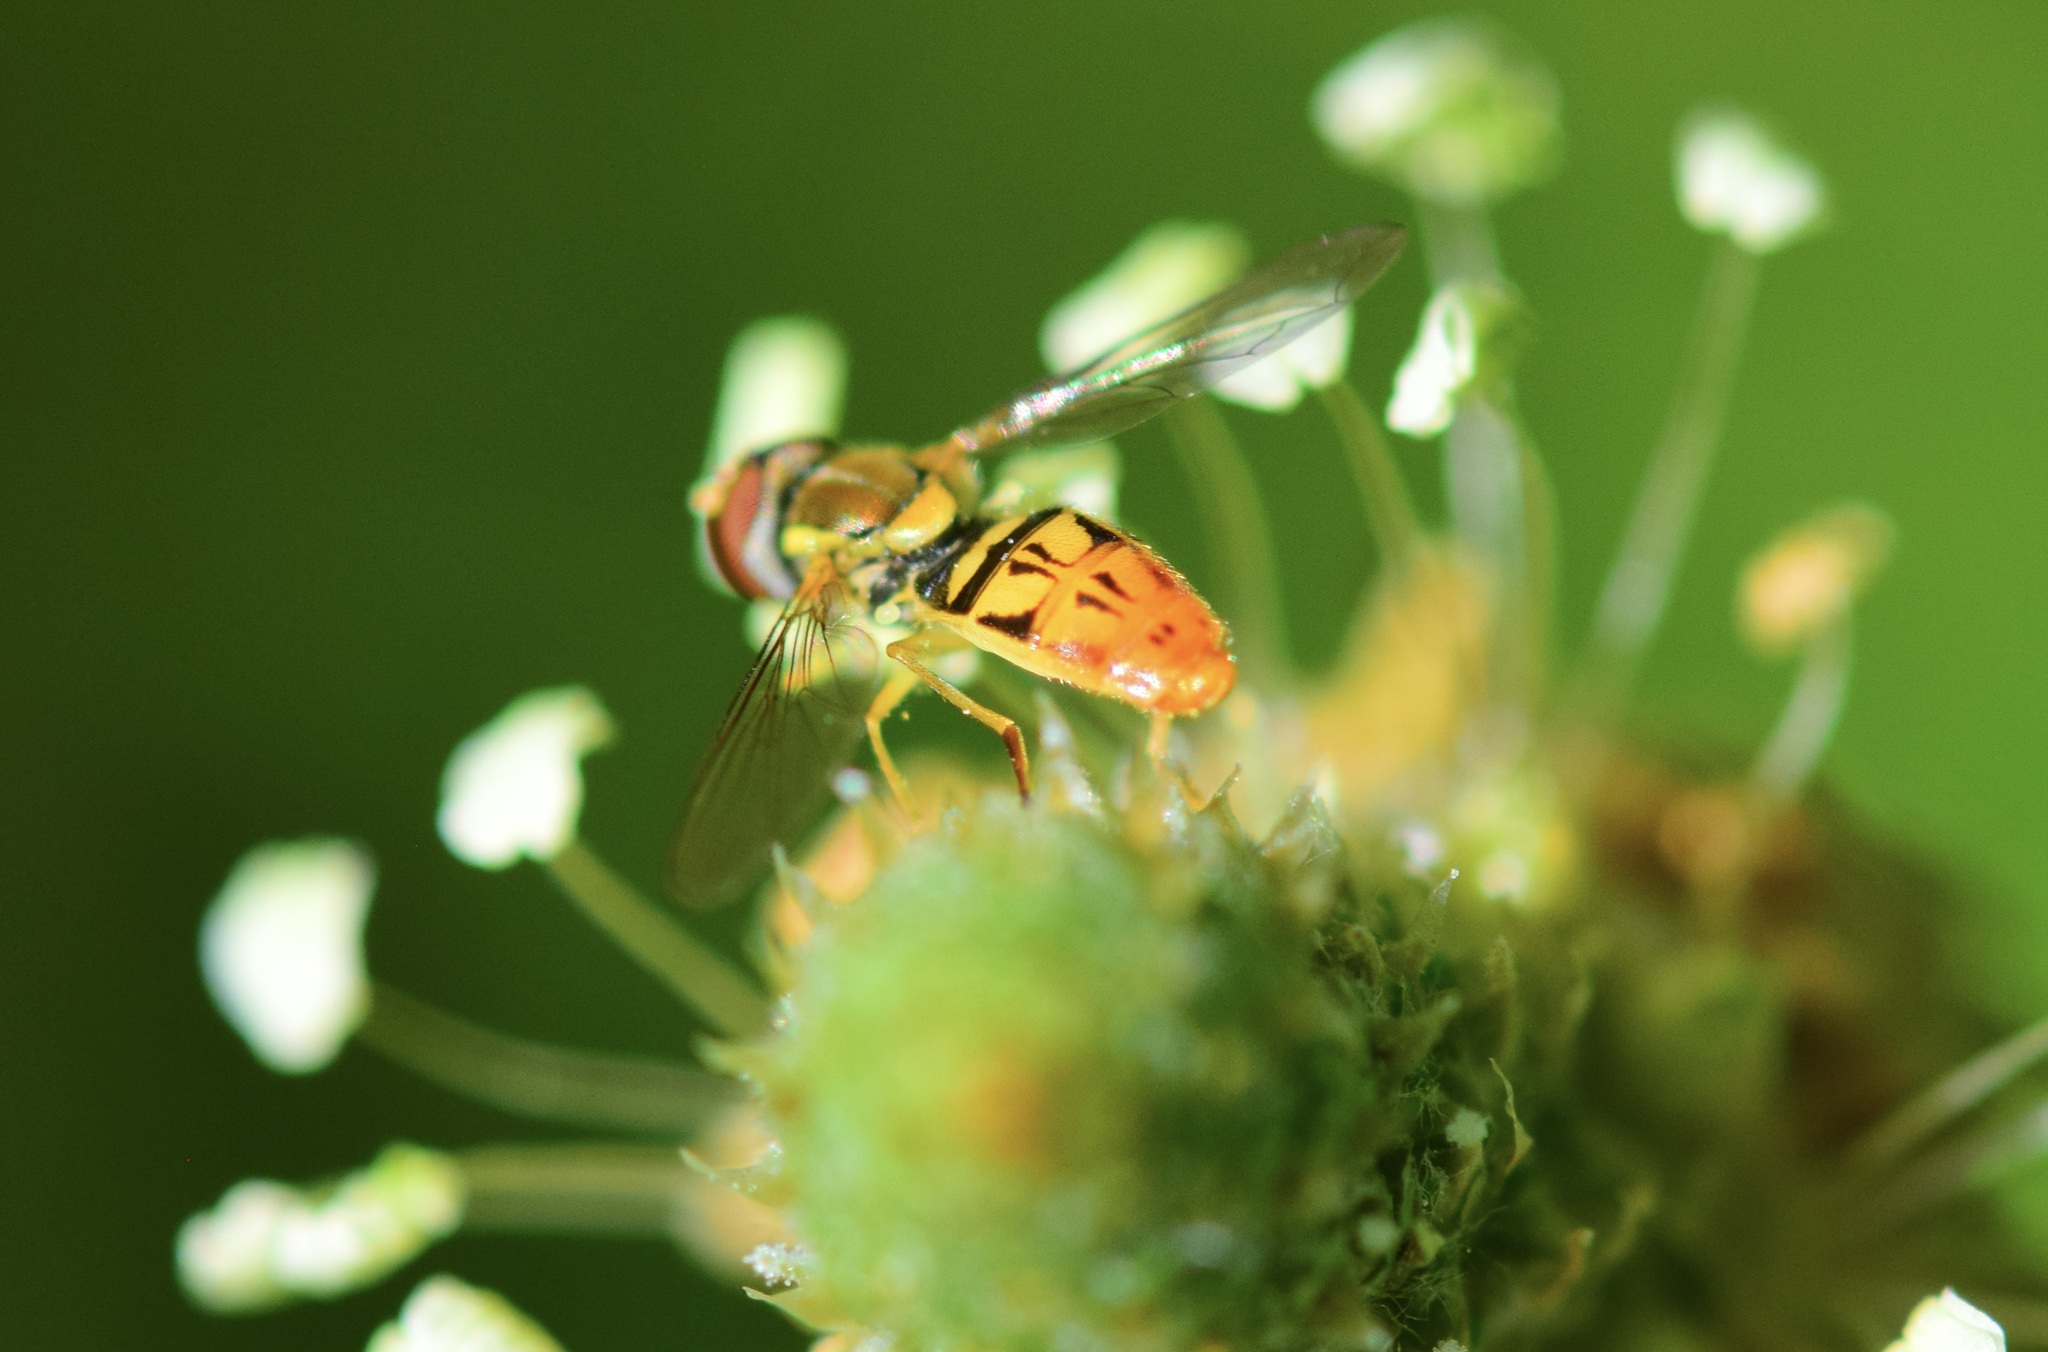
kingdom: Animalia
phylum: Arthropoda
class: Insecta
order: Diptera
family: Syrphidae
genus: Toxomerus
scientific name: Toxomerus marginatus
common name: Syrphid fly
